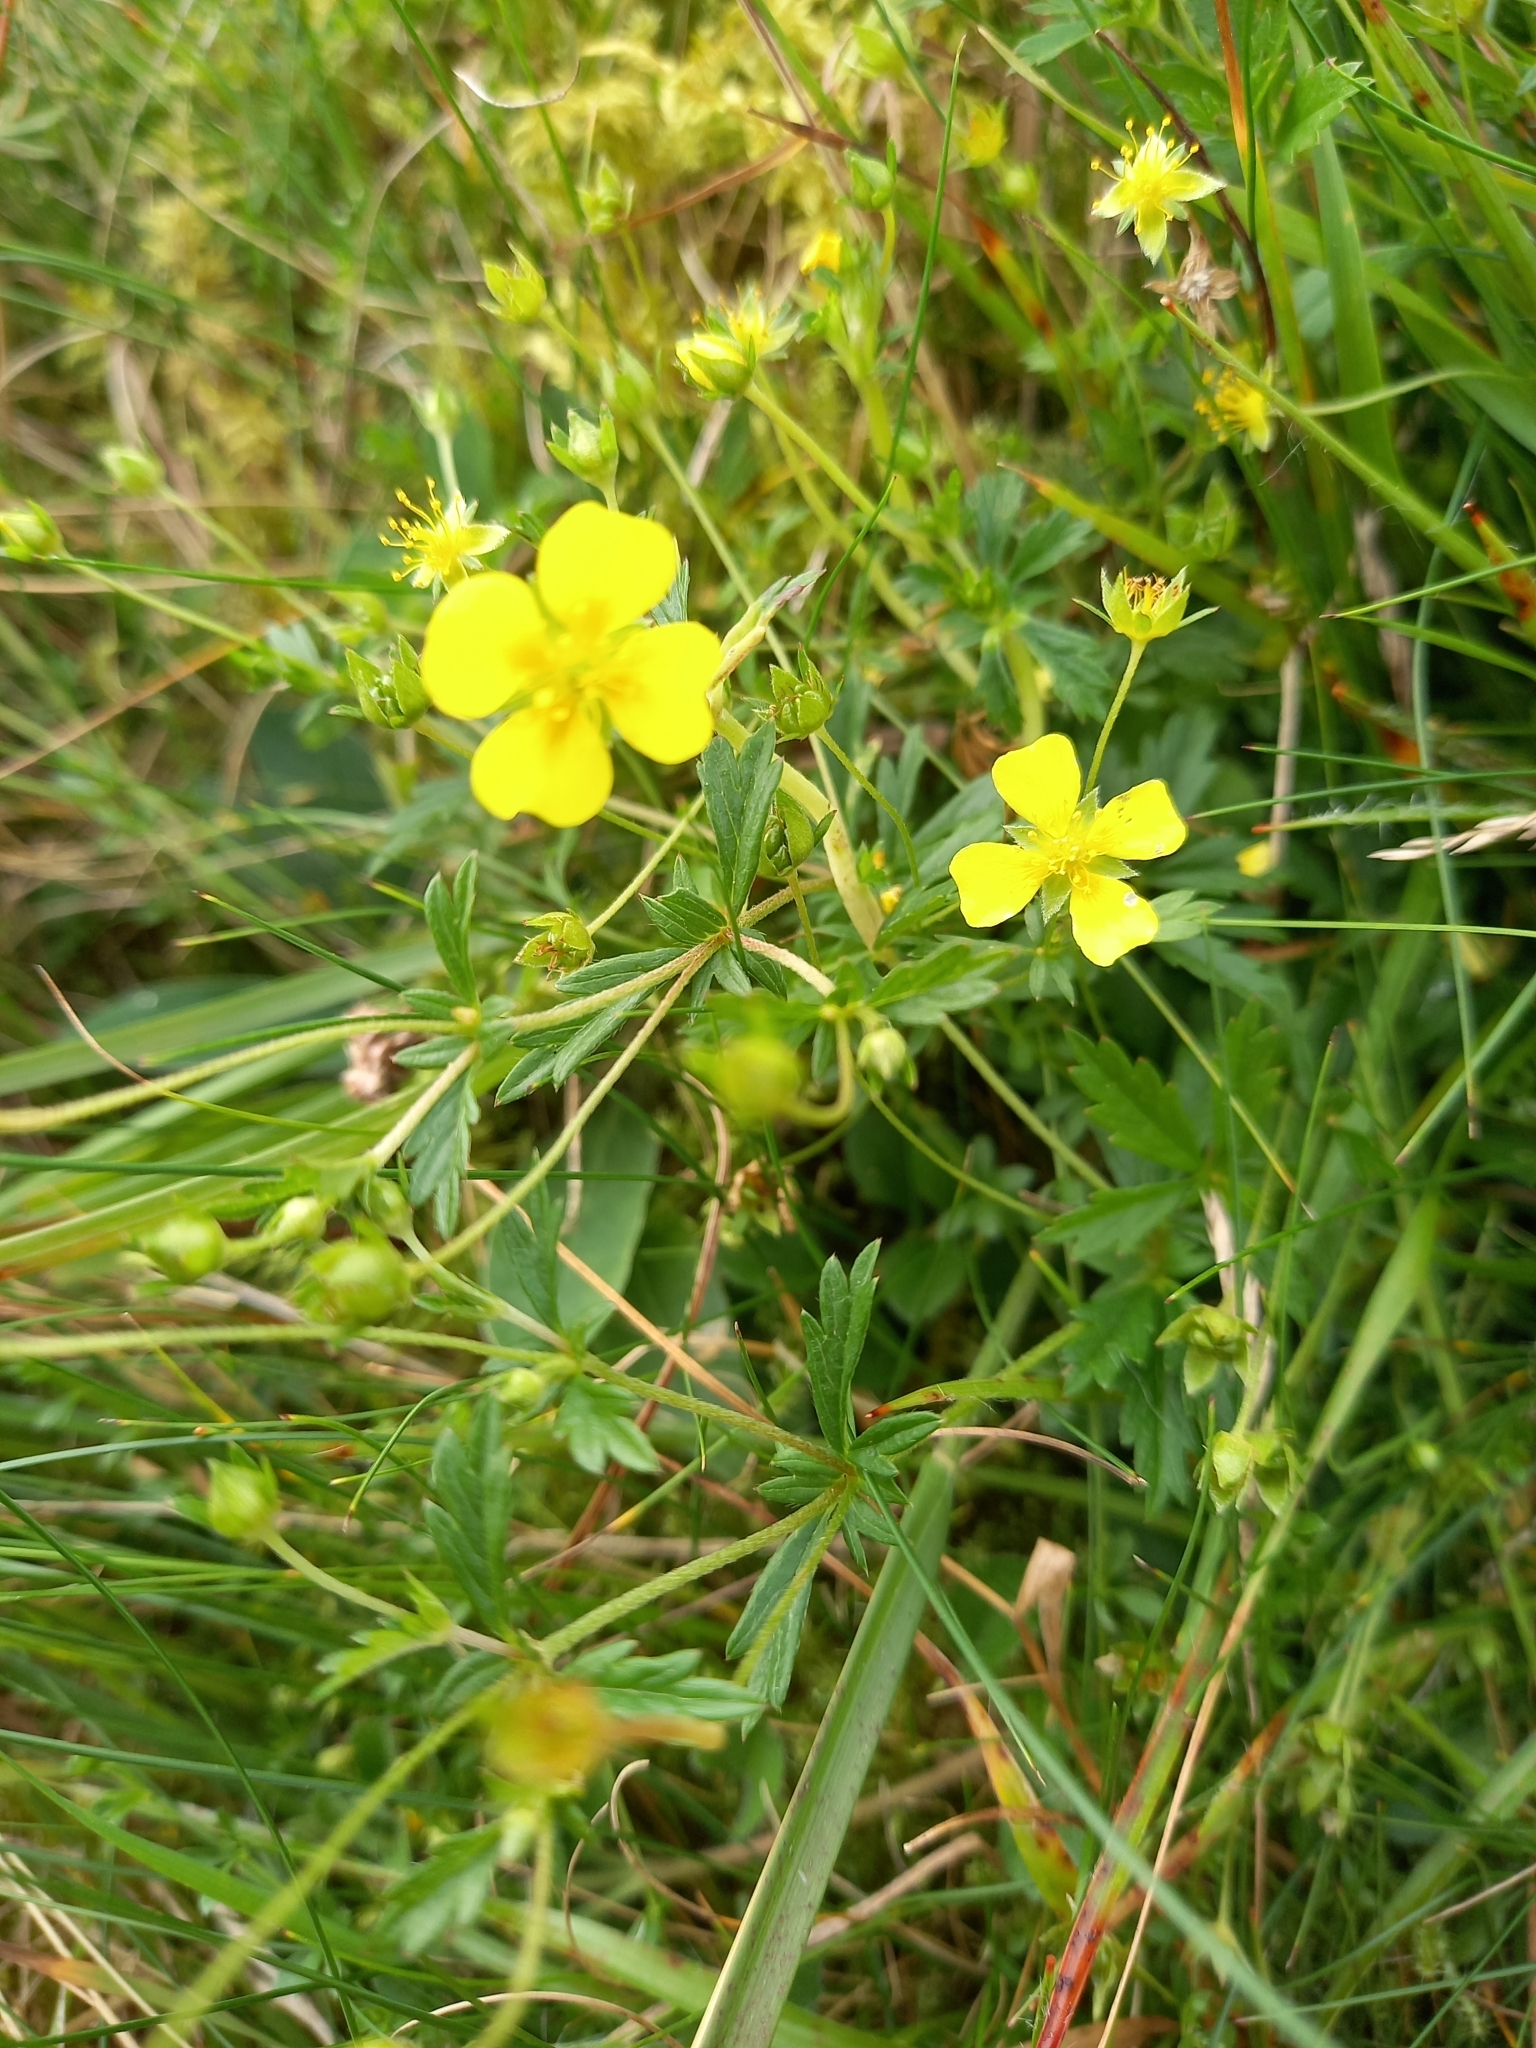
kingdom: Plantae
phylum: Tracheophyta
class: Magnoliopsida
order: Rosales
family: Rosaceae
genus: Potentilla
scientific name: Potentilla erecta
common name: Tormentil
